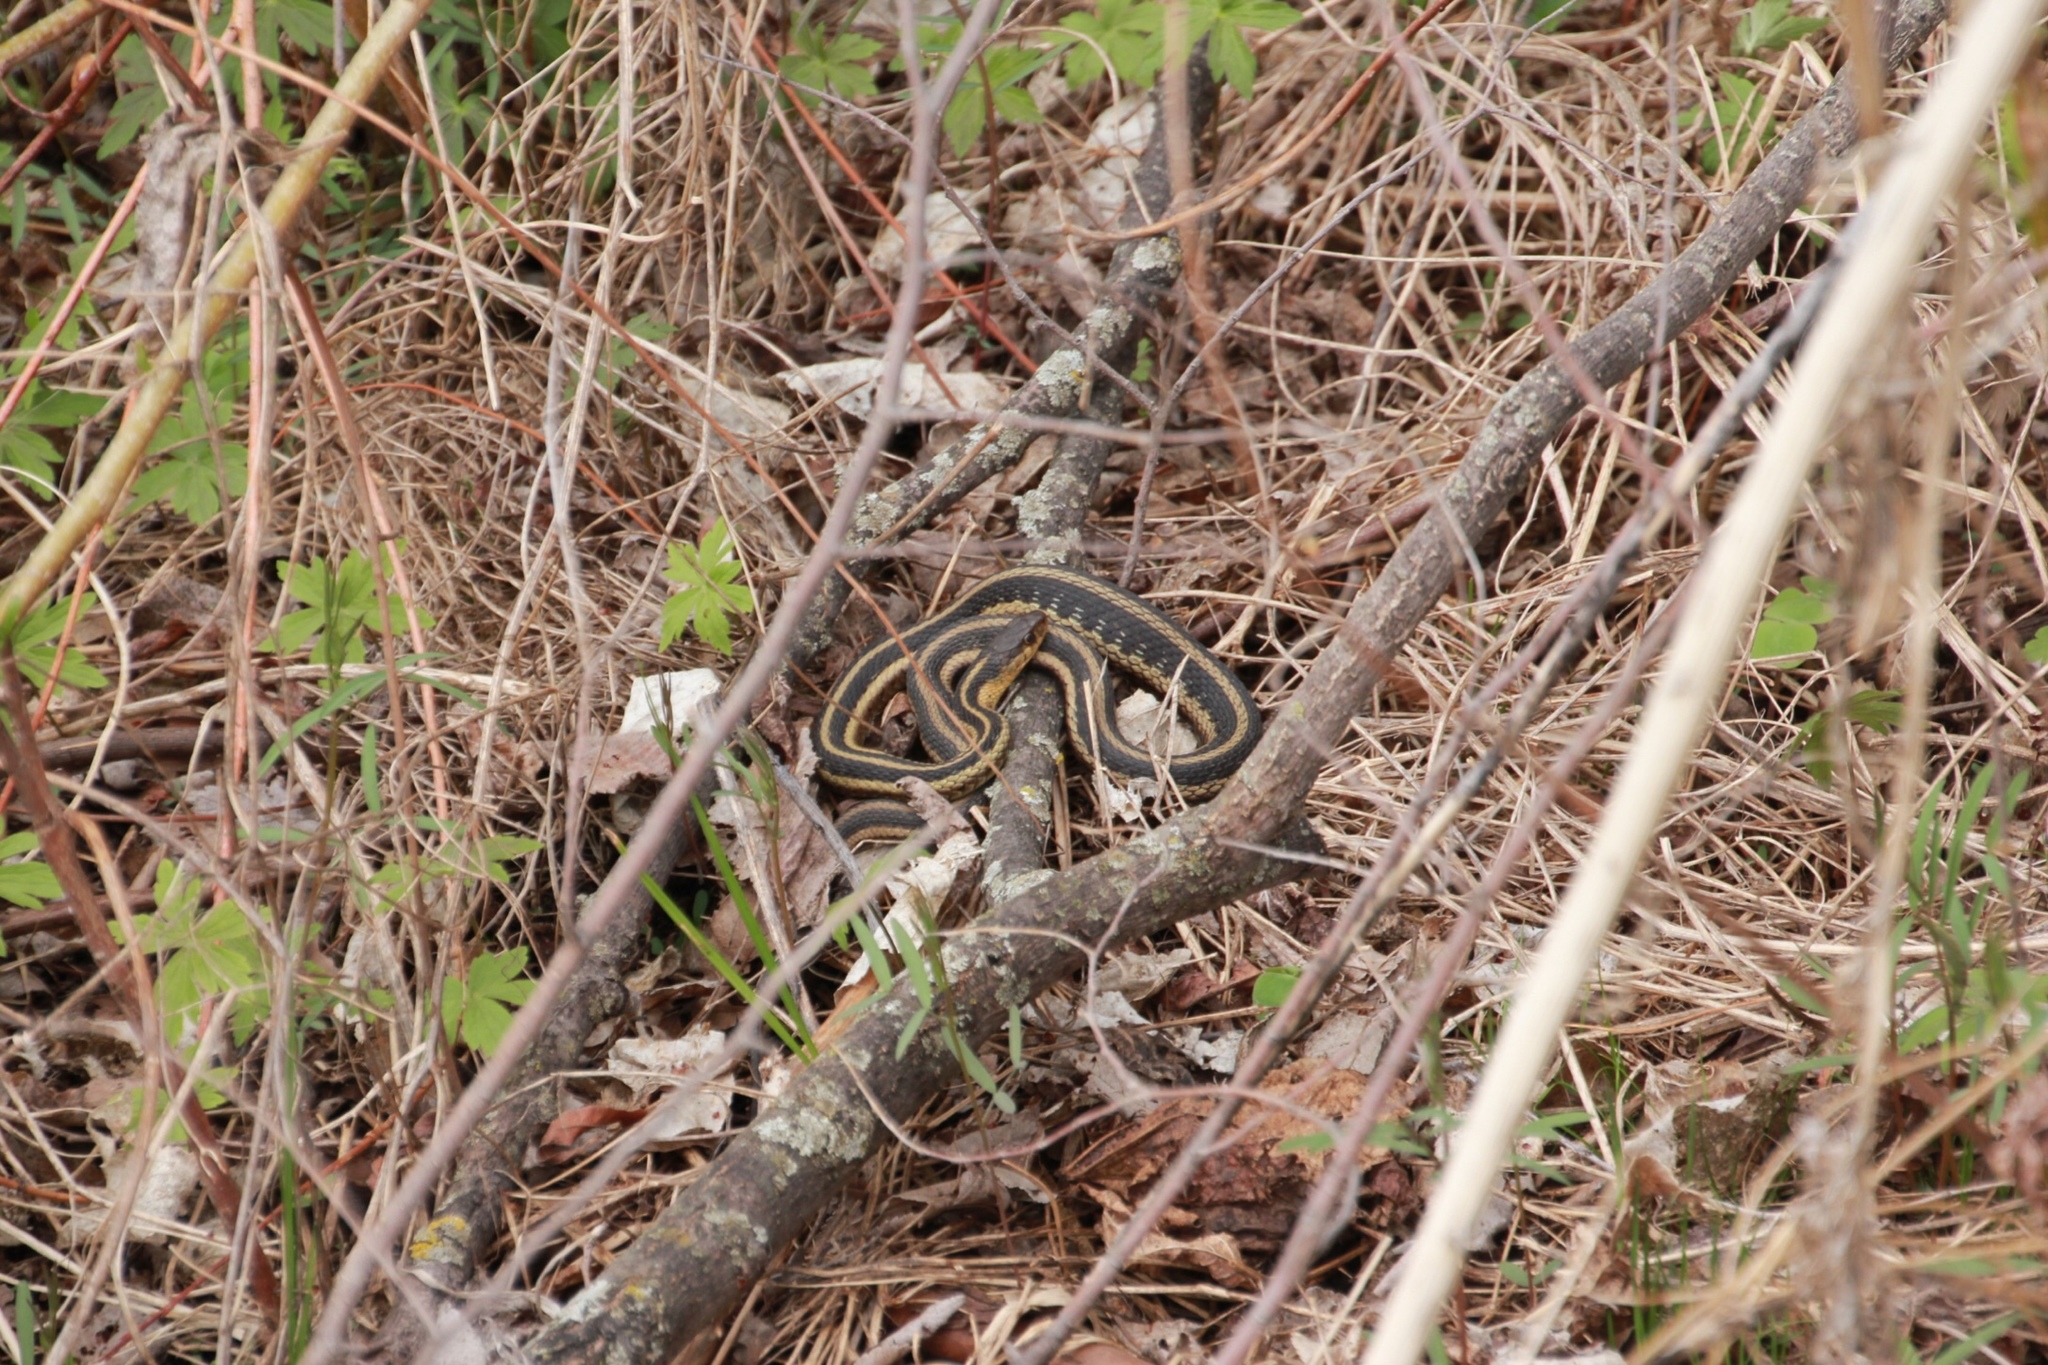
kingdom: Animalia
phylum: Chordata
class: Squamata
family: Colubridae
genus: Thamnophis
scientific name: Thamnophis sirtalis
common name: Common garter snake
